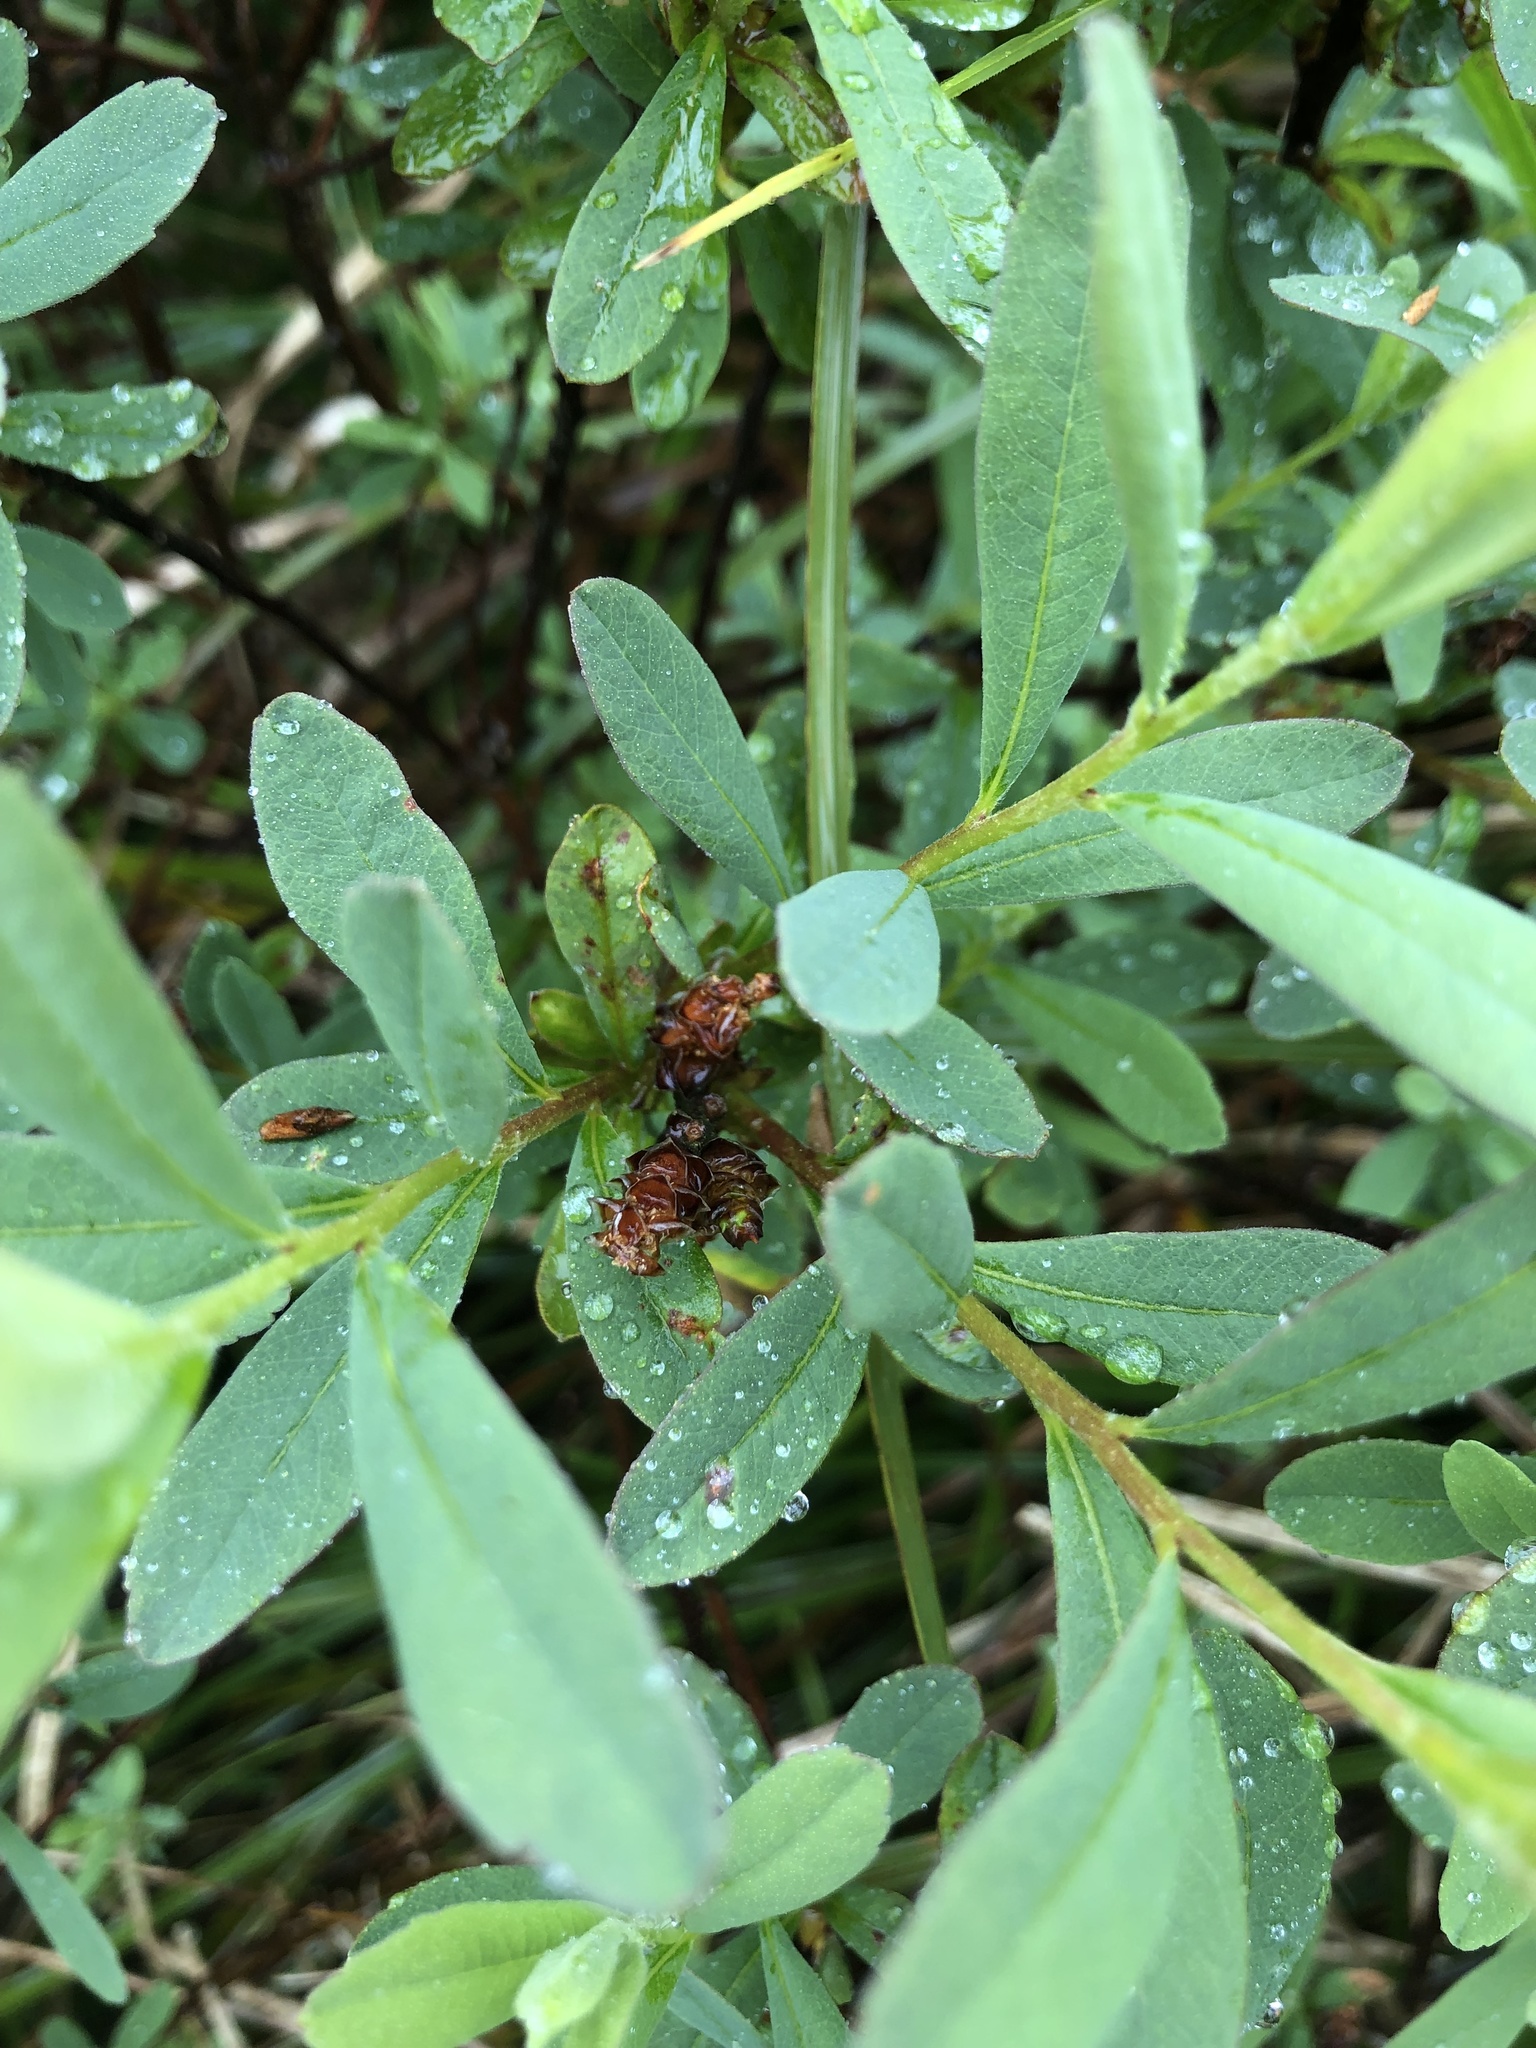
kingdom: Plantae
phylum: Tracheophyta
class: Magnoliopsida
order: Fagales
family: Myricaceae
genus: Myrica
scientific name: Myrica gale
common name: Sweet gale
